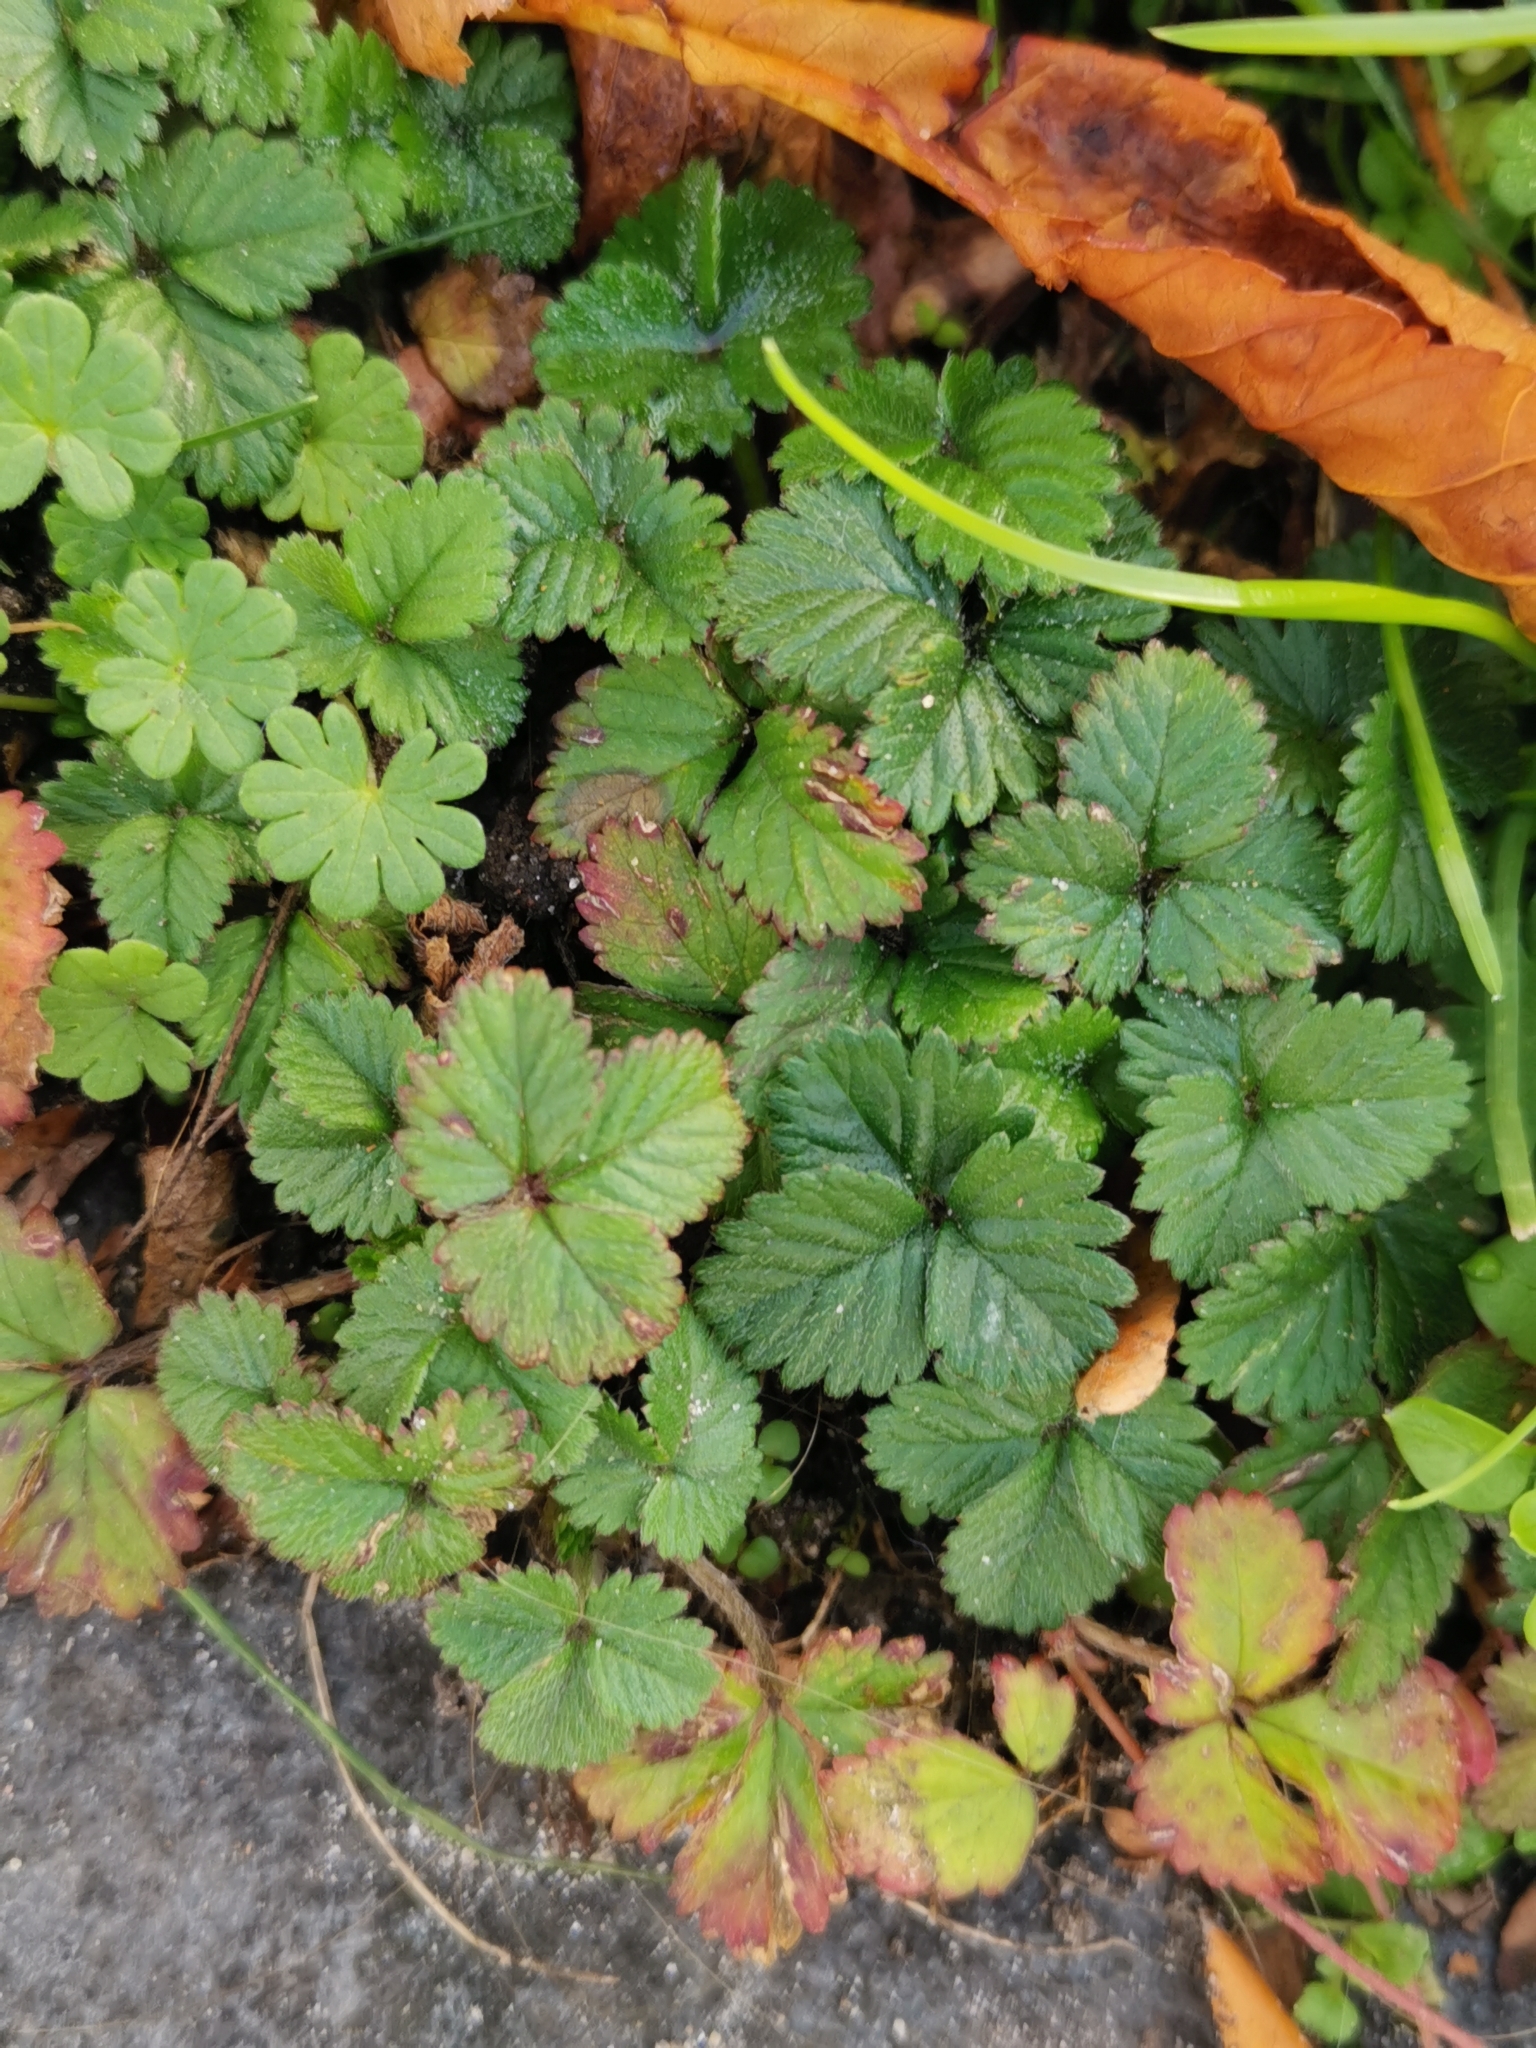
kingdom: Plantae
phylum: Tracheophyta
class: Magnoliopsida
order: Rosales
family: Rosaceae
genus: Potentilla
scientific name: Potentilla indica
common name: Yellow-flowered strawberry
